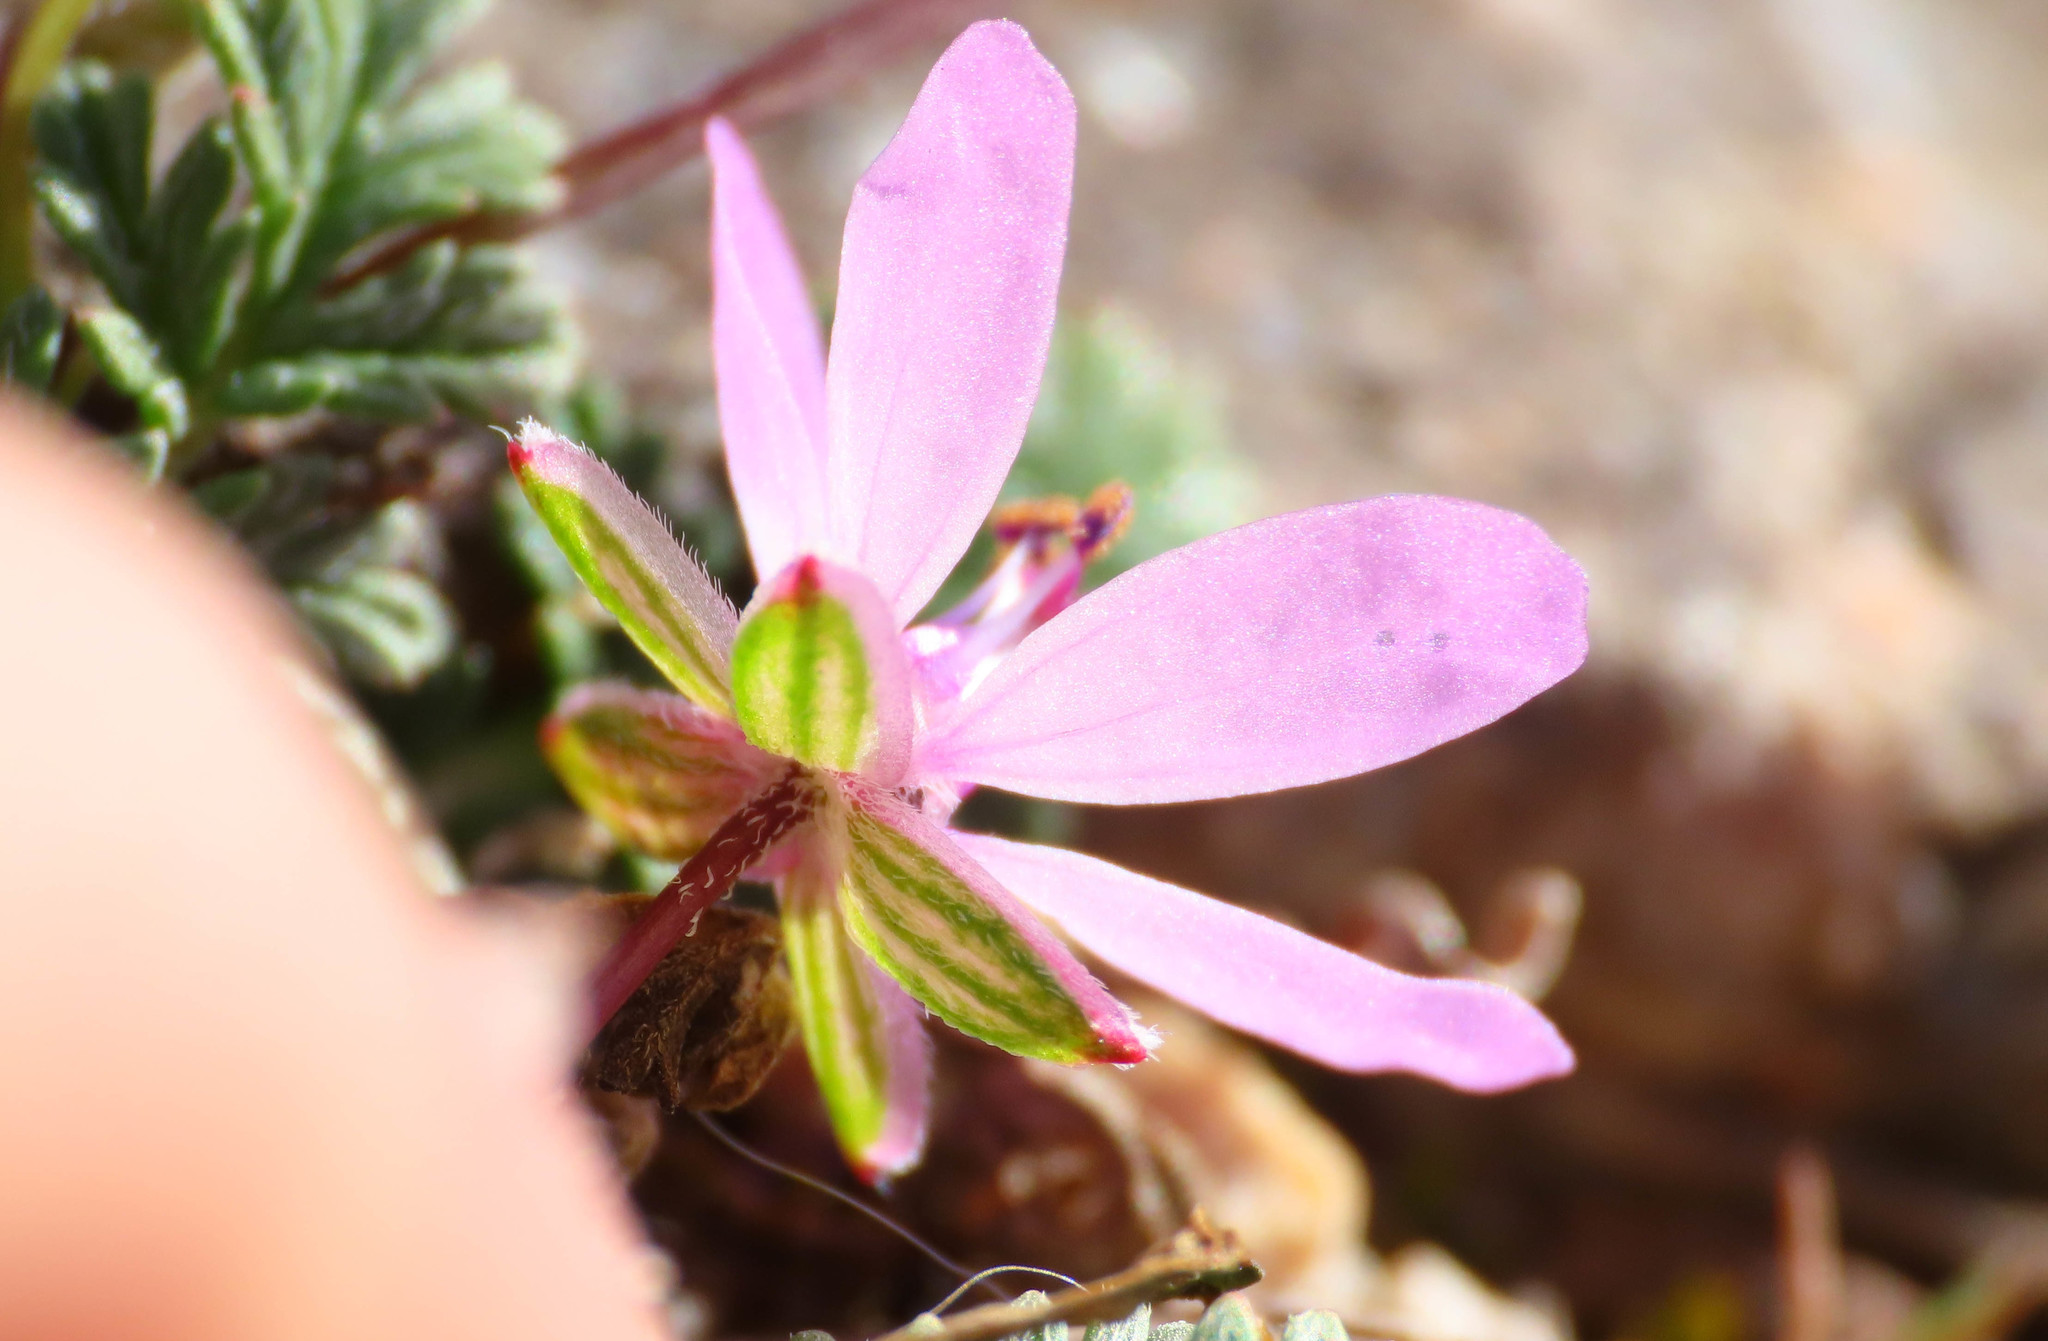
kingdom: Plantae
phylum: Tracheophyta
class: Magnoliopsida
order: Geraniales
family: Geraniaceae
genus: Erodium
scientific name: Erodium cicutarium
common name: Common stork's-bill
